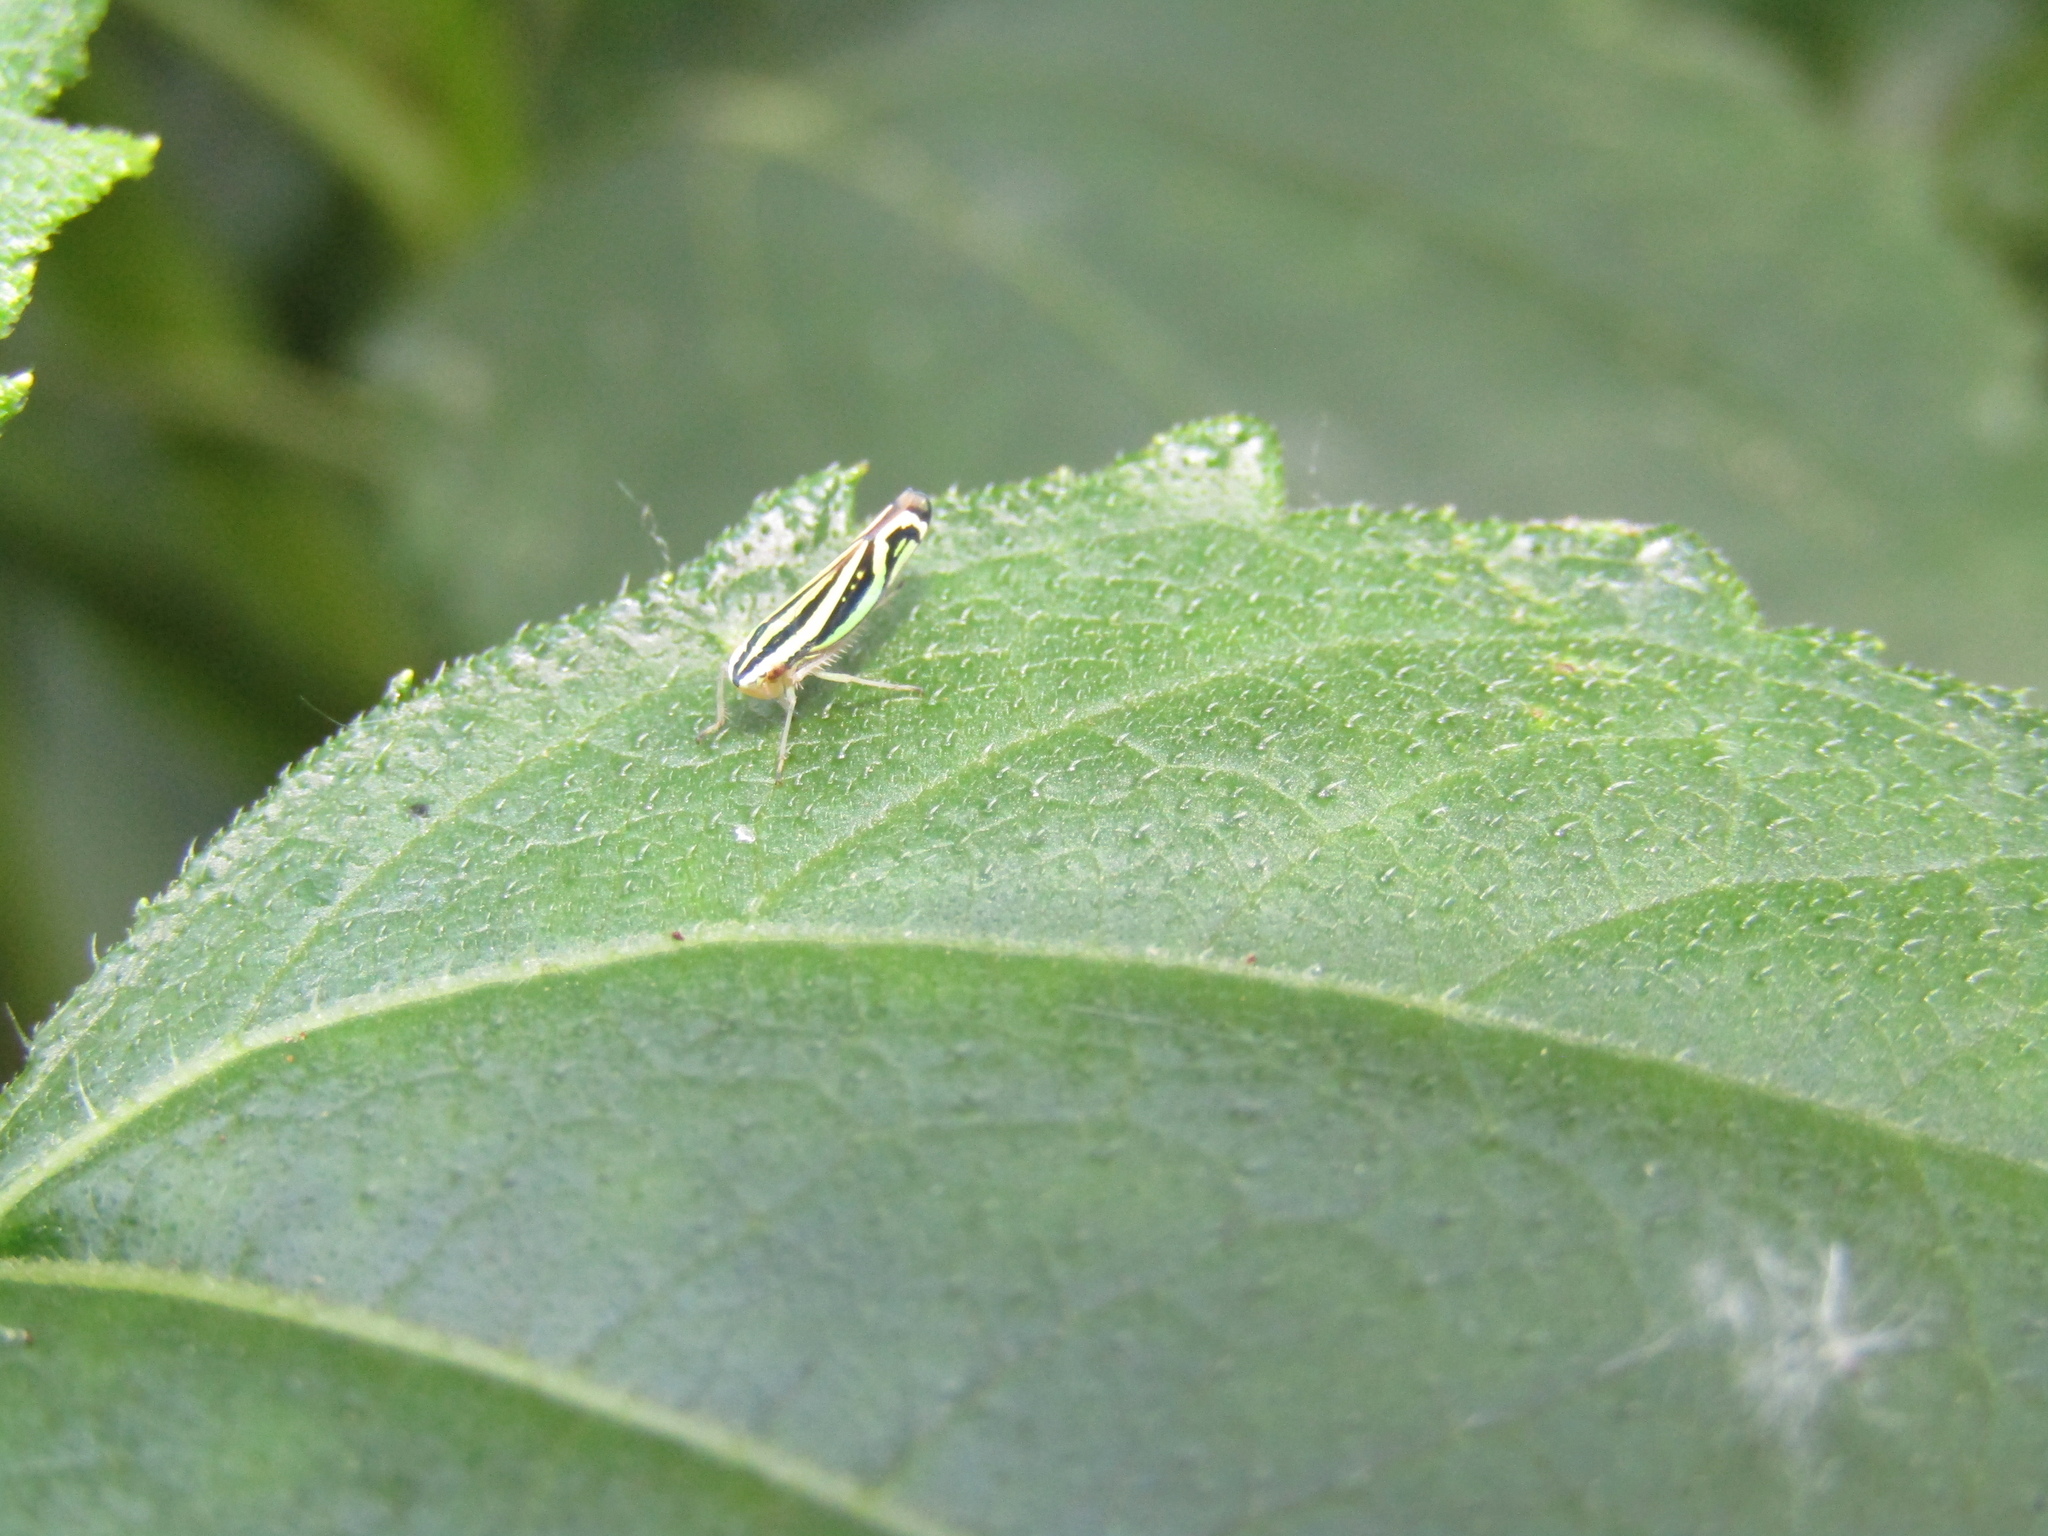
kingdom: Animalia
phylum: Arthropoda
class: Insecta
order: Hemiptera
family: Cicadellidae
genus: Sibovia
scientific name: Sibovia sagata
